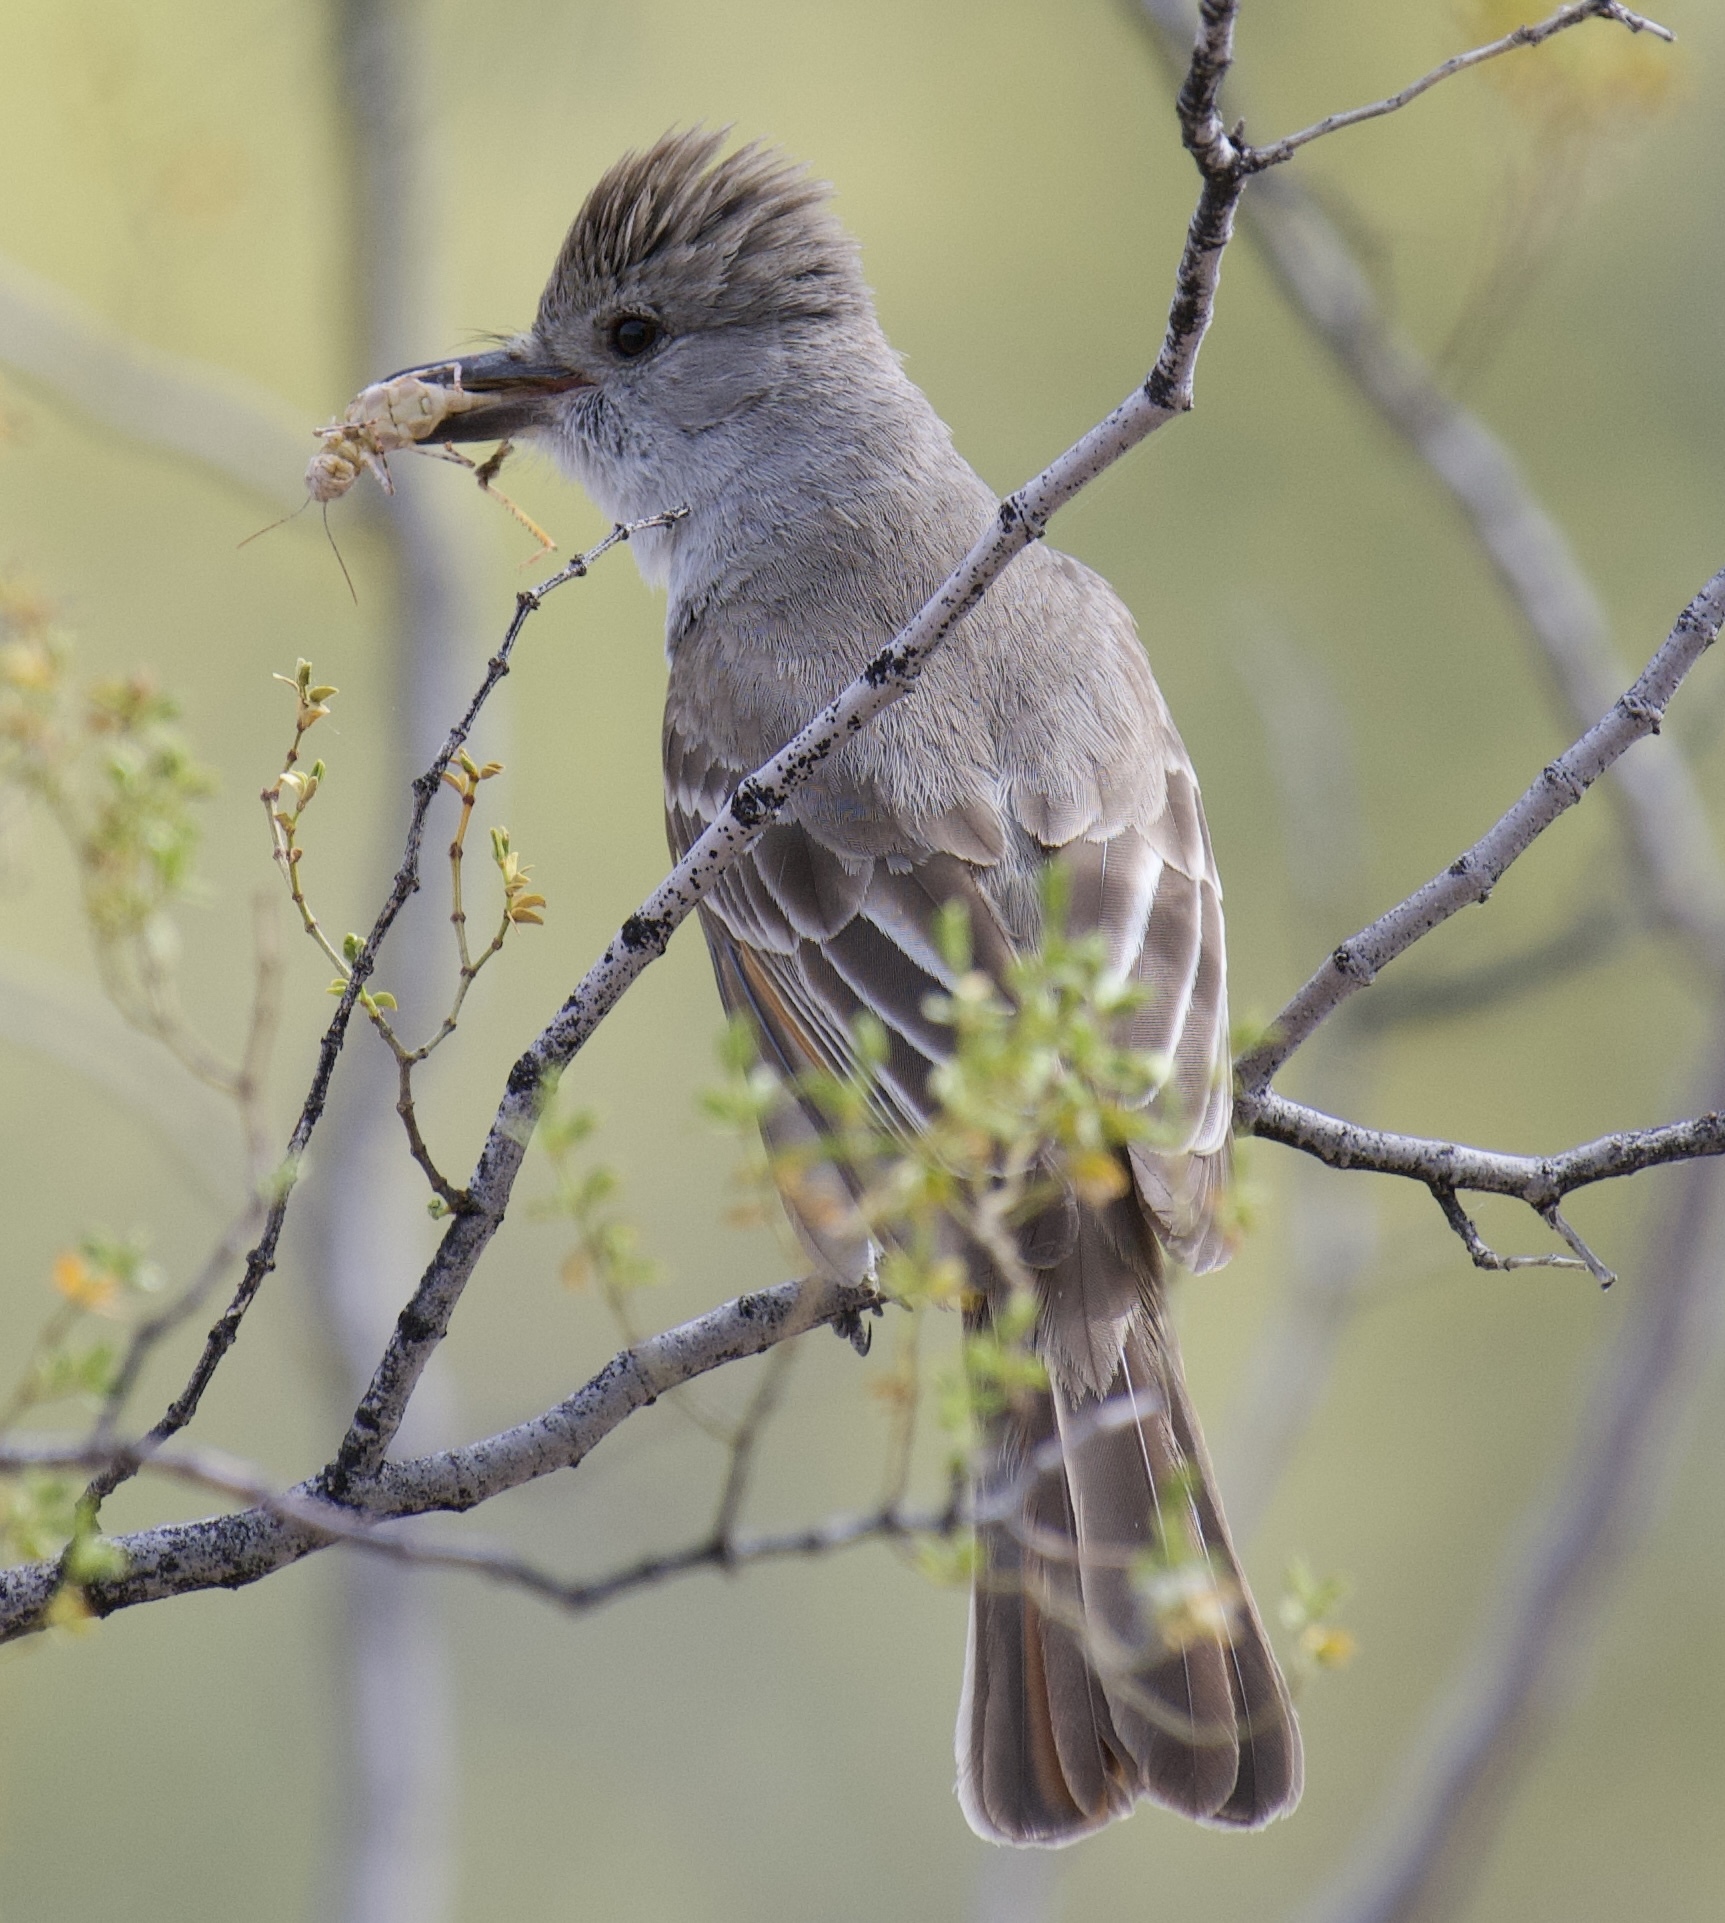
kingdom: Animalia
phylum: Chordata
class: Aves
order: Passeriformes
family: Tyrannidae
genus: Myiarchus
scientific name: Myiarchus cinerascens
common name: Ash-throated flycatcher
